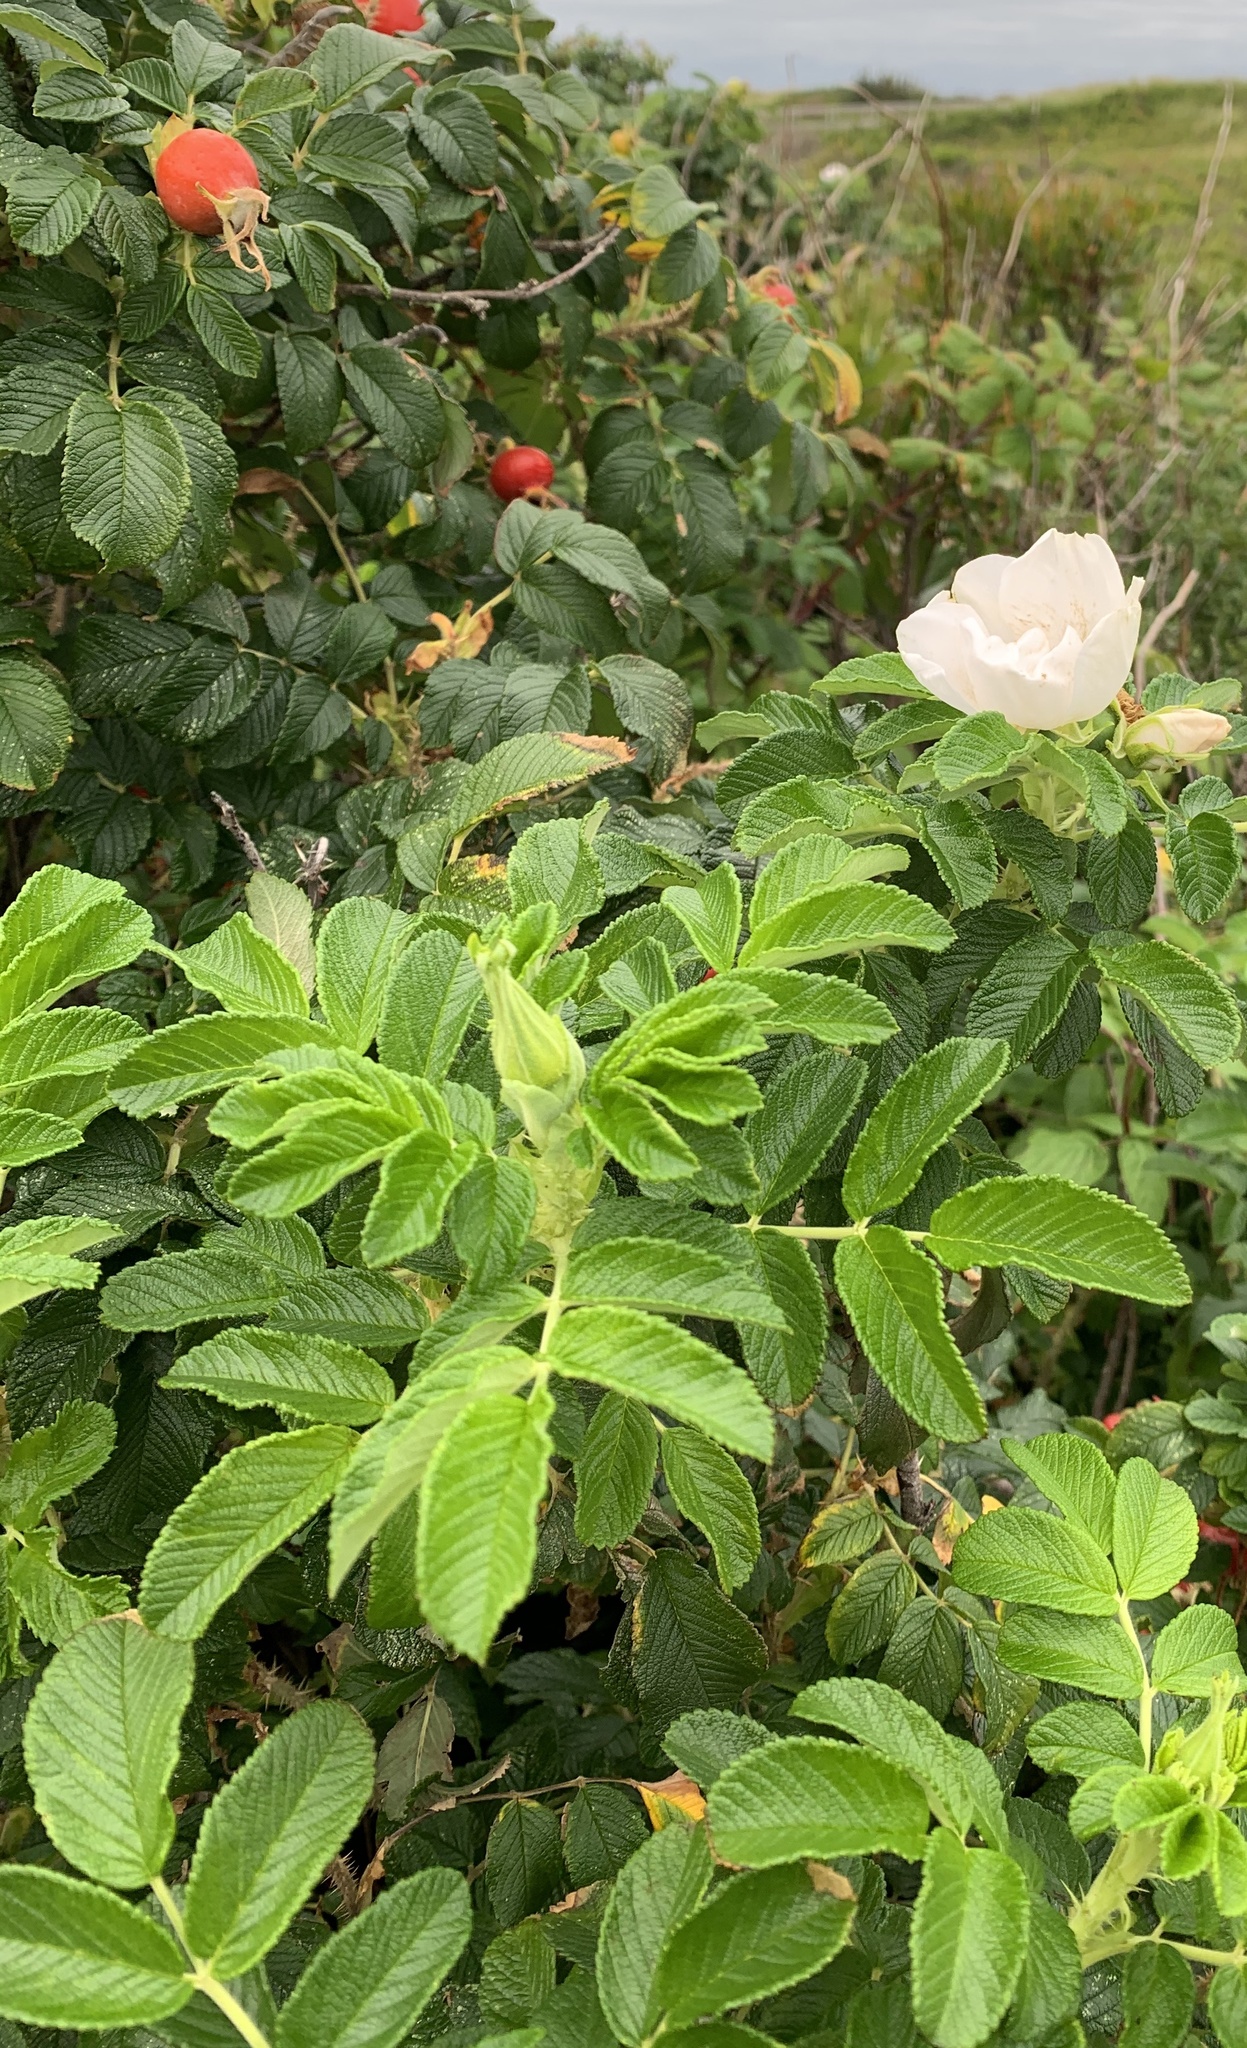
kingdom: Plantae
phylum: Tracheophyta
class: Magnoliopsida
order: Rosales
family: Rosaceae
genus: Rosa
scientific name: Rosa rugosa
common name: Japanese rose
